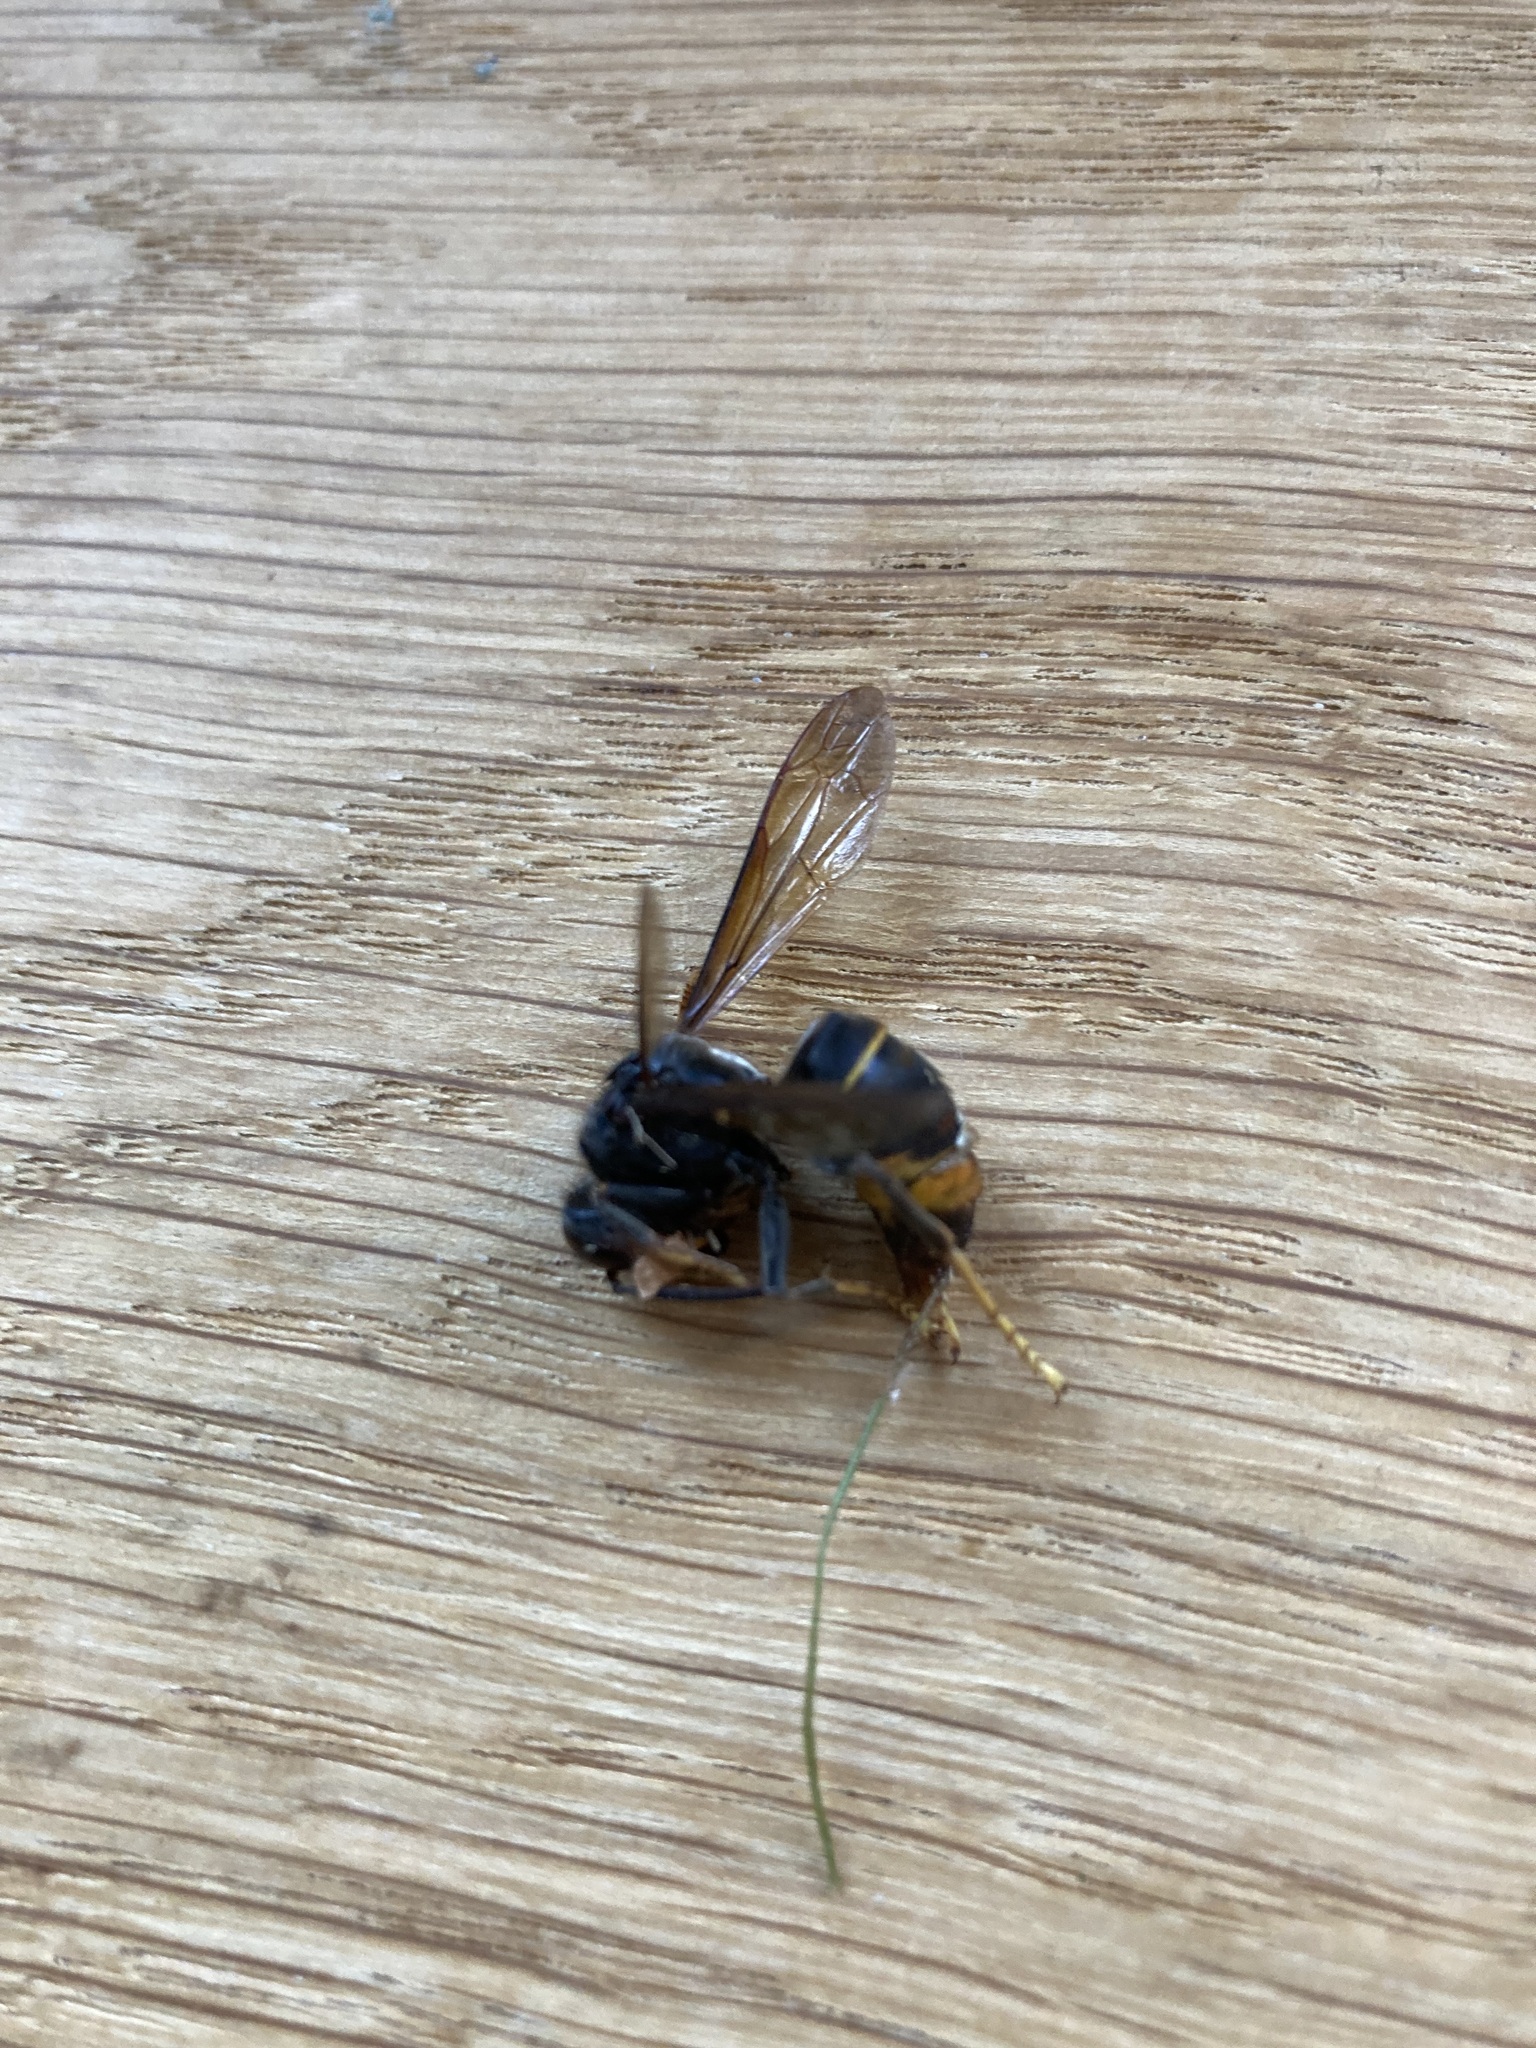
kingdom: Animalia
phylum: Arthropoda
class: Insecta
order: Hymenoptera
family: Vespidae
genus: Vespa
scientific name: Vespa velutina
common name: Asian hornet
